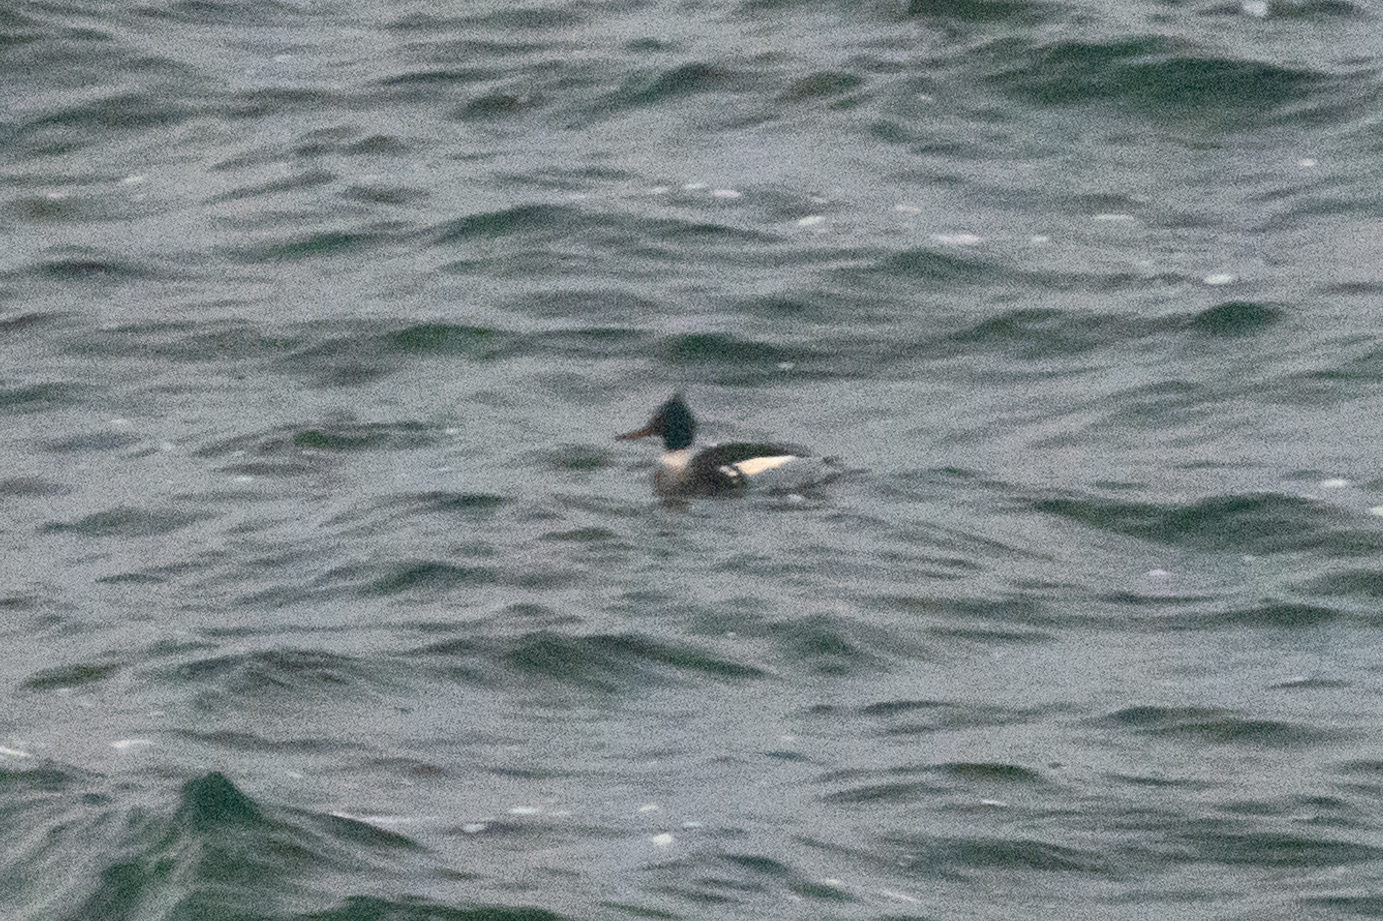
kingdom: Animalia
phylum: Chordata
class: Aves
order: Anseriformes
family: Anatidae
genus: Mergus
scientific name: Mergus serrator
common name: Red-breasted merganser
